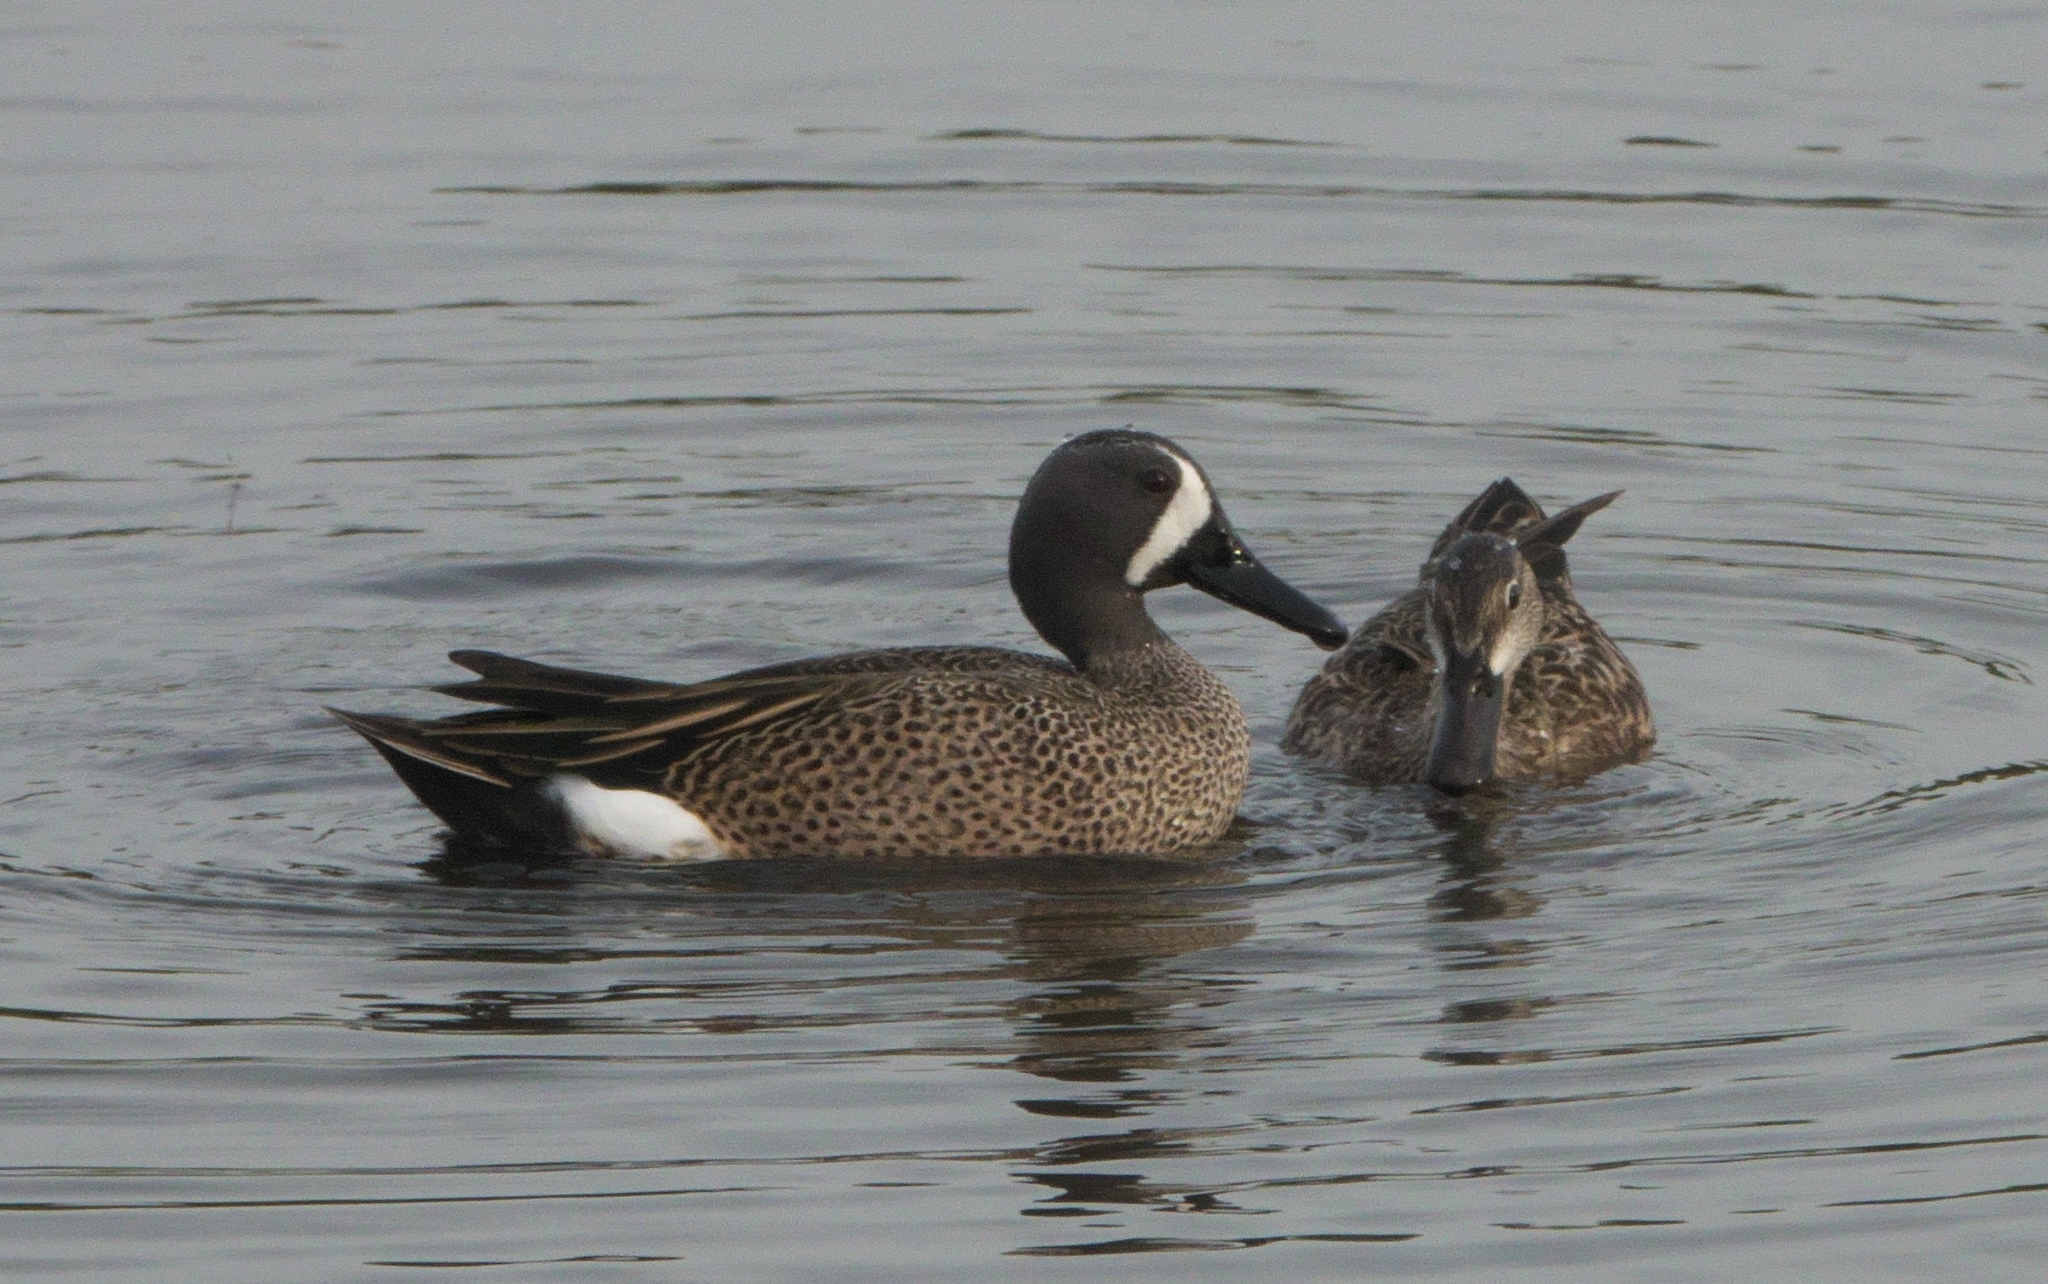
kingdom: Animalia
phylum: Chordata
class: Aves
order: Anseriformes
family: Anatidae
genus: Spatula
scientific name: Spatula discors
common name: Blue-winged teal
